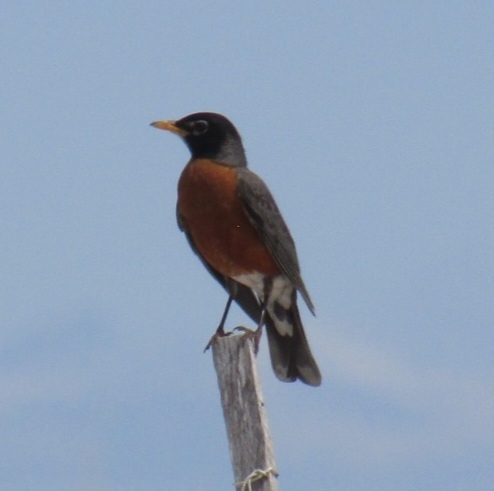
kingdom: Animalia
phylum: Chordata
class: Aves
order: Passeriformes
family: Turdidae
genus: Turdus
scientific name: Turdus migratorius
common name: American robin
